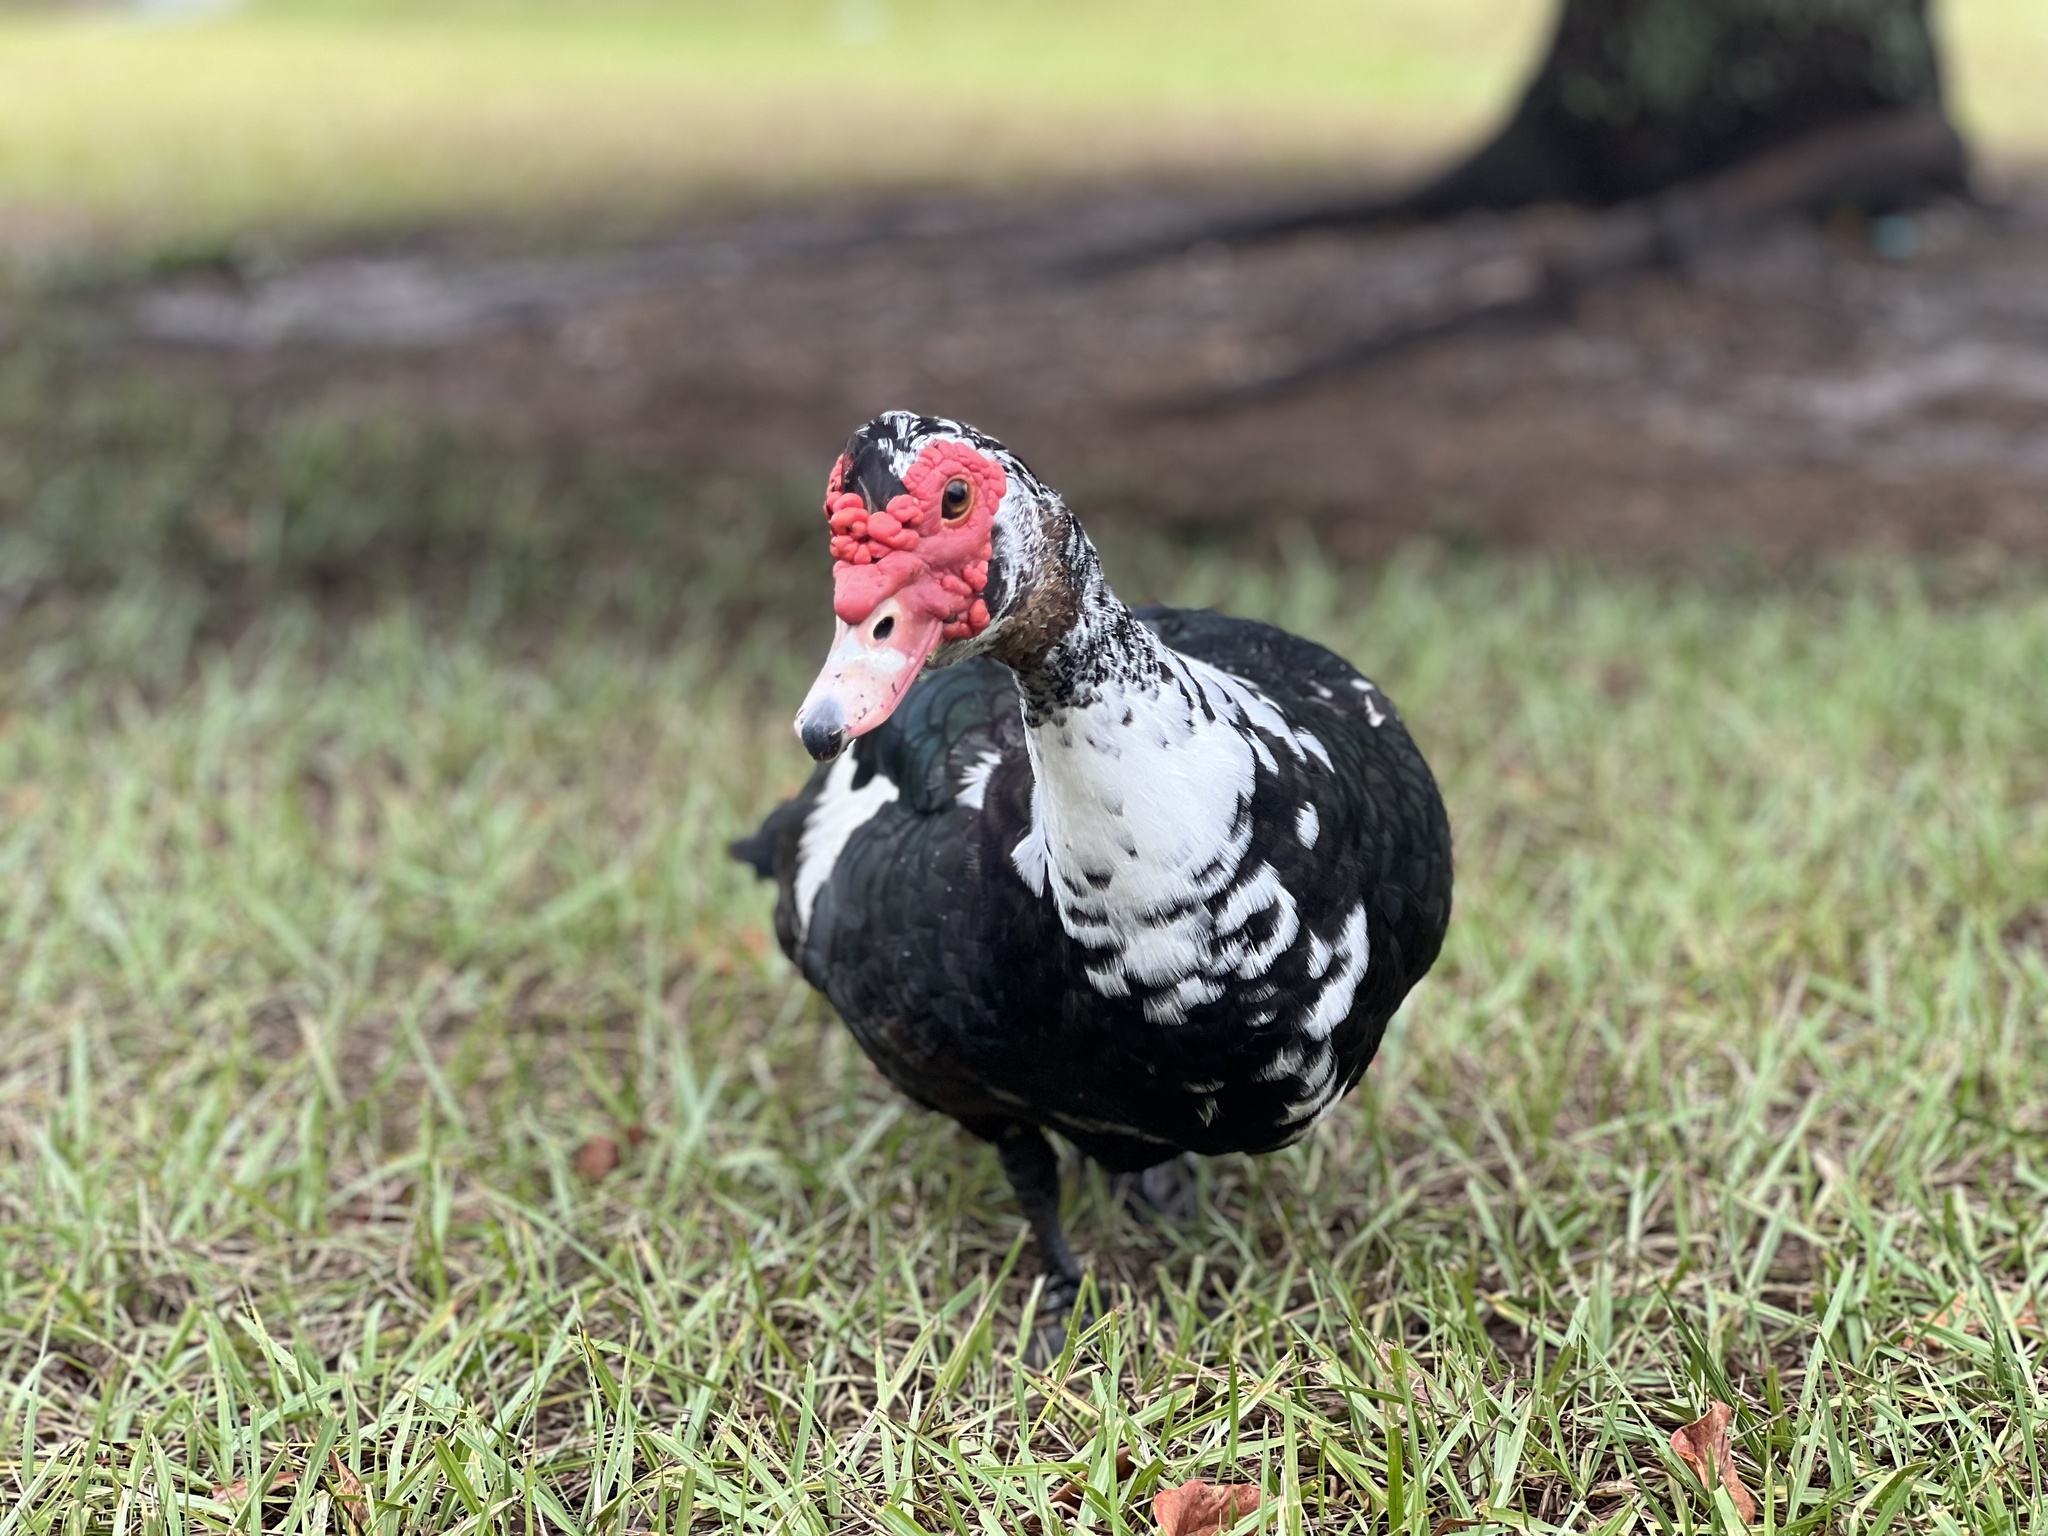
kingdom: Animalia
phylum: Chordata
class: Aves
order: Anseriformes
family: Anatidae
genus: Cairina
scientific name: Cairina moschata
